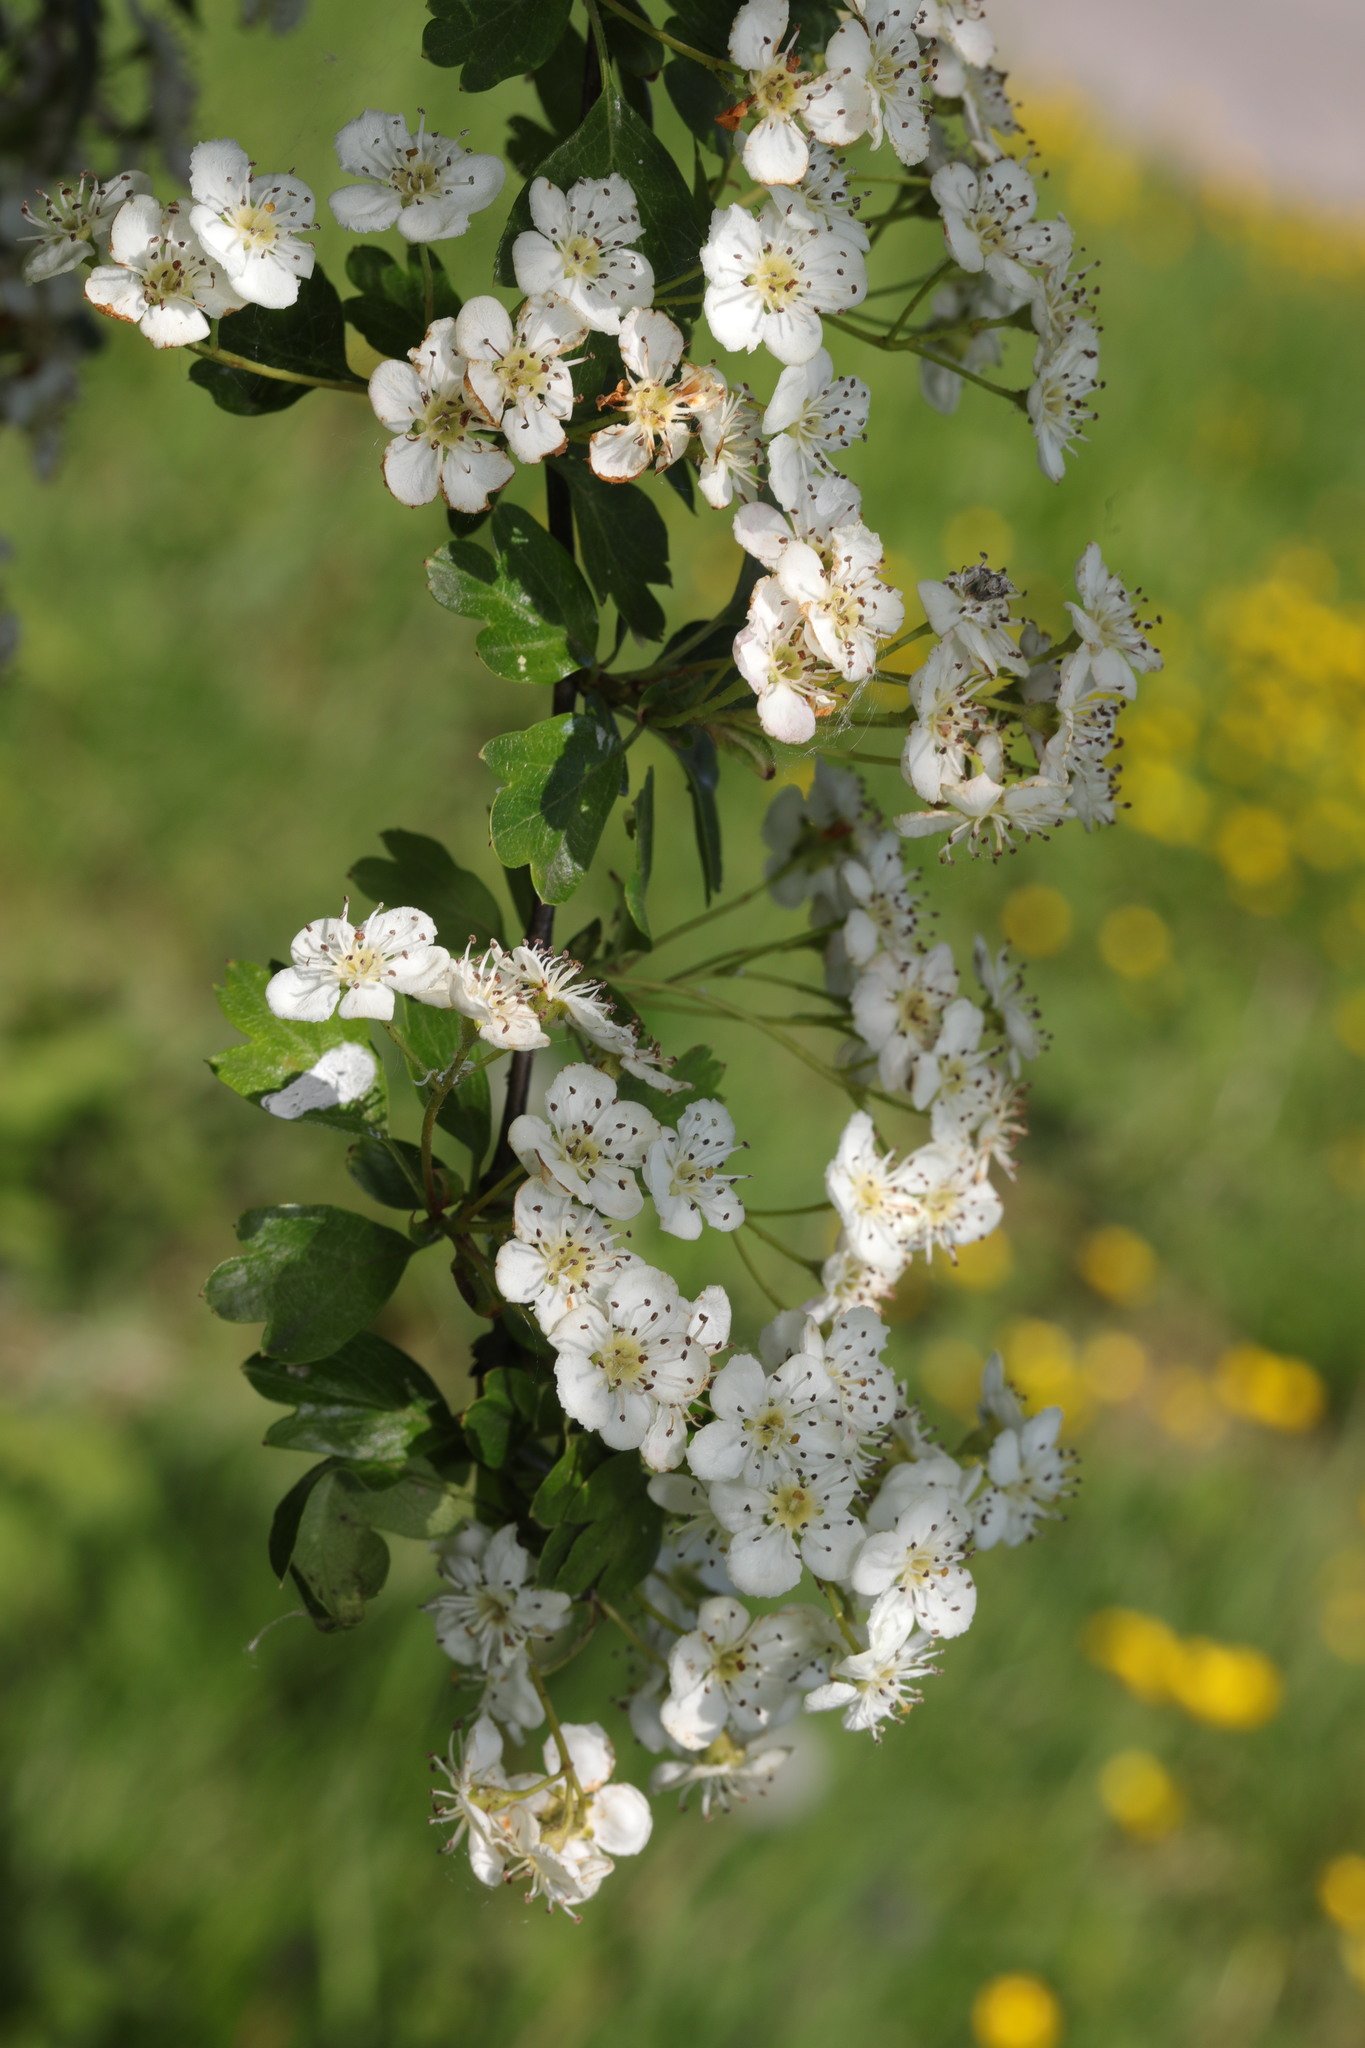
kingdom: Plantae
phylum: Tracheophyta
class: Magnoliopsida
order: Rosales
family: Rosaceae
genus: Crataegus
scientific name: Crataegus monogyna
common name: Hawthorn
